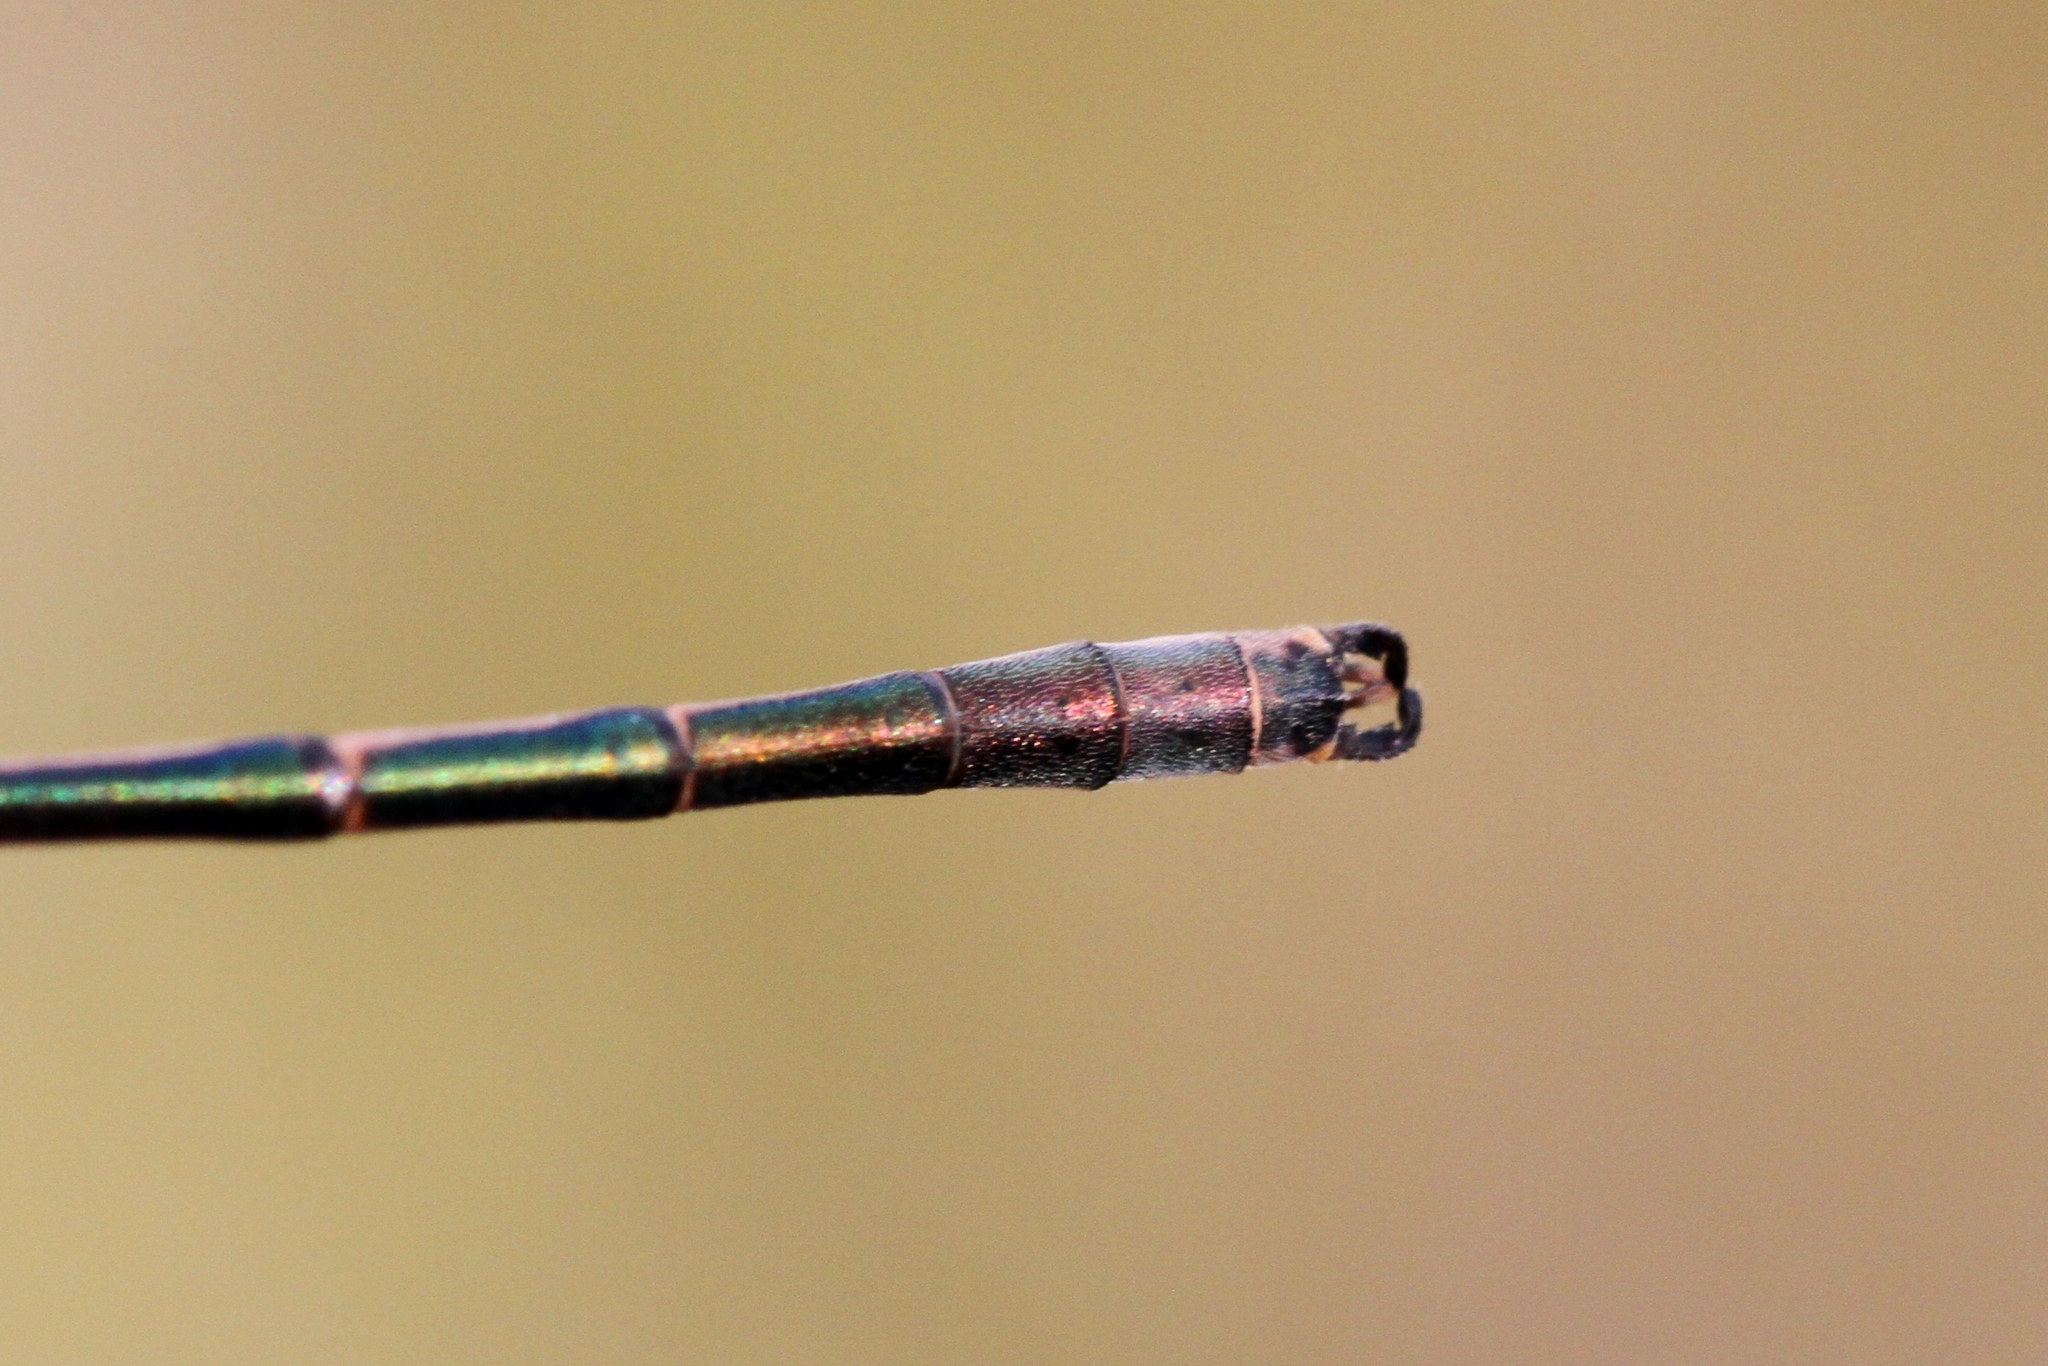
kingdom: Animalia
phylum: Arthropoda
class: Insecta
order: Odonata
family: Lestidae
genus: Lestes
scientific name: Lestes disjunctus
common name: Northern spreadwing
